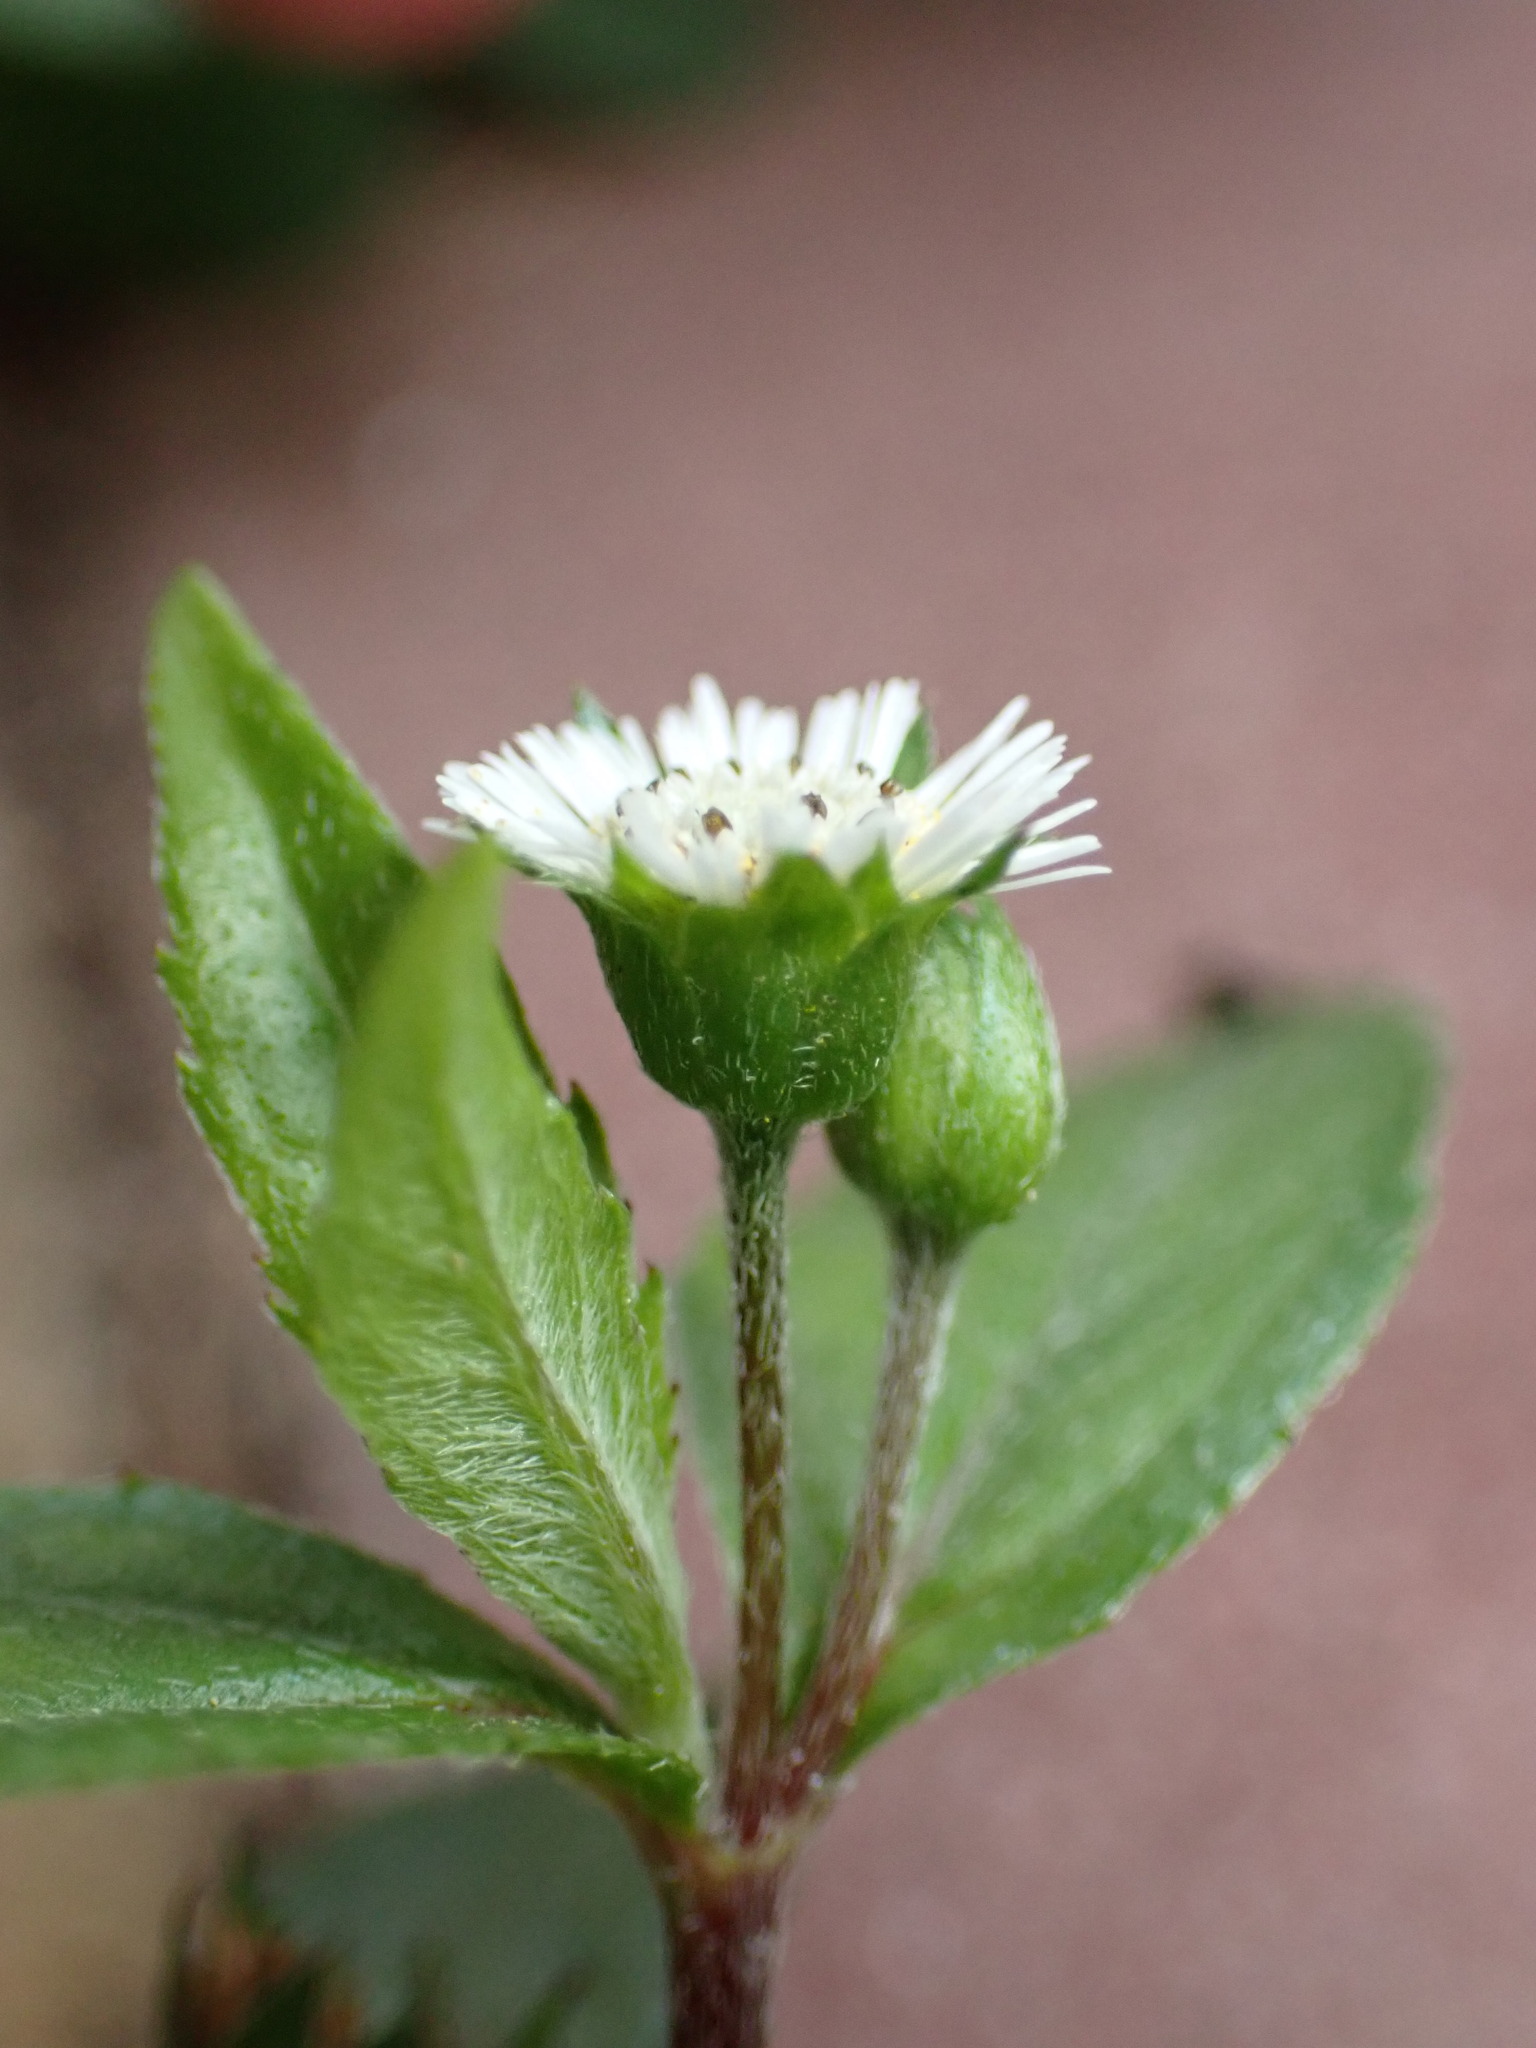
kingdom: Plantae
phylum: Tracheophyta
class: Magnoliopsida
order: Asterales
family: Asteraceae
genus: Eclipta
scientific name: Eclipta prostrata
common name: False daisy
